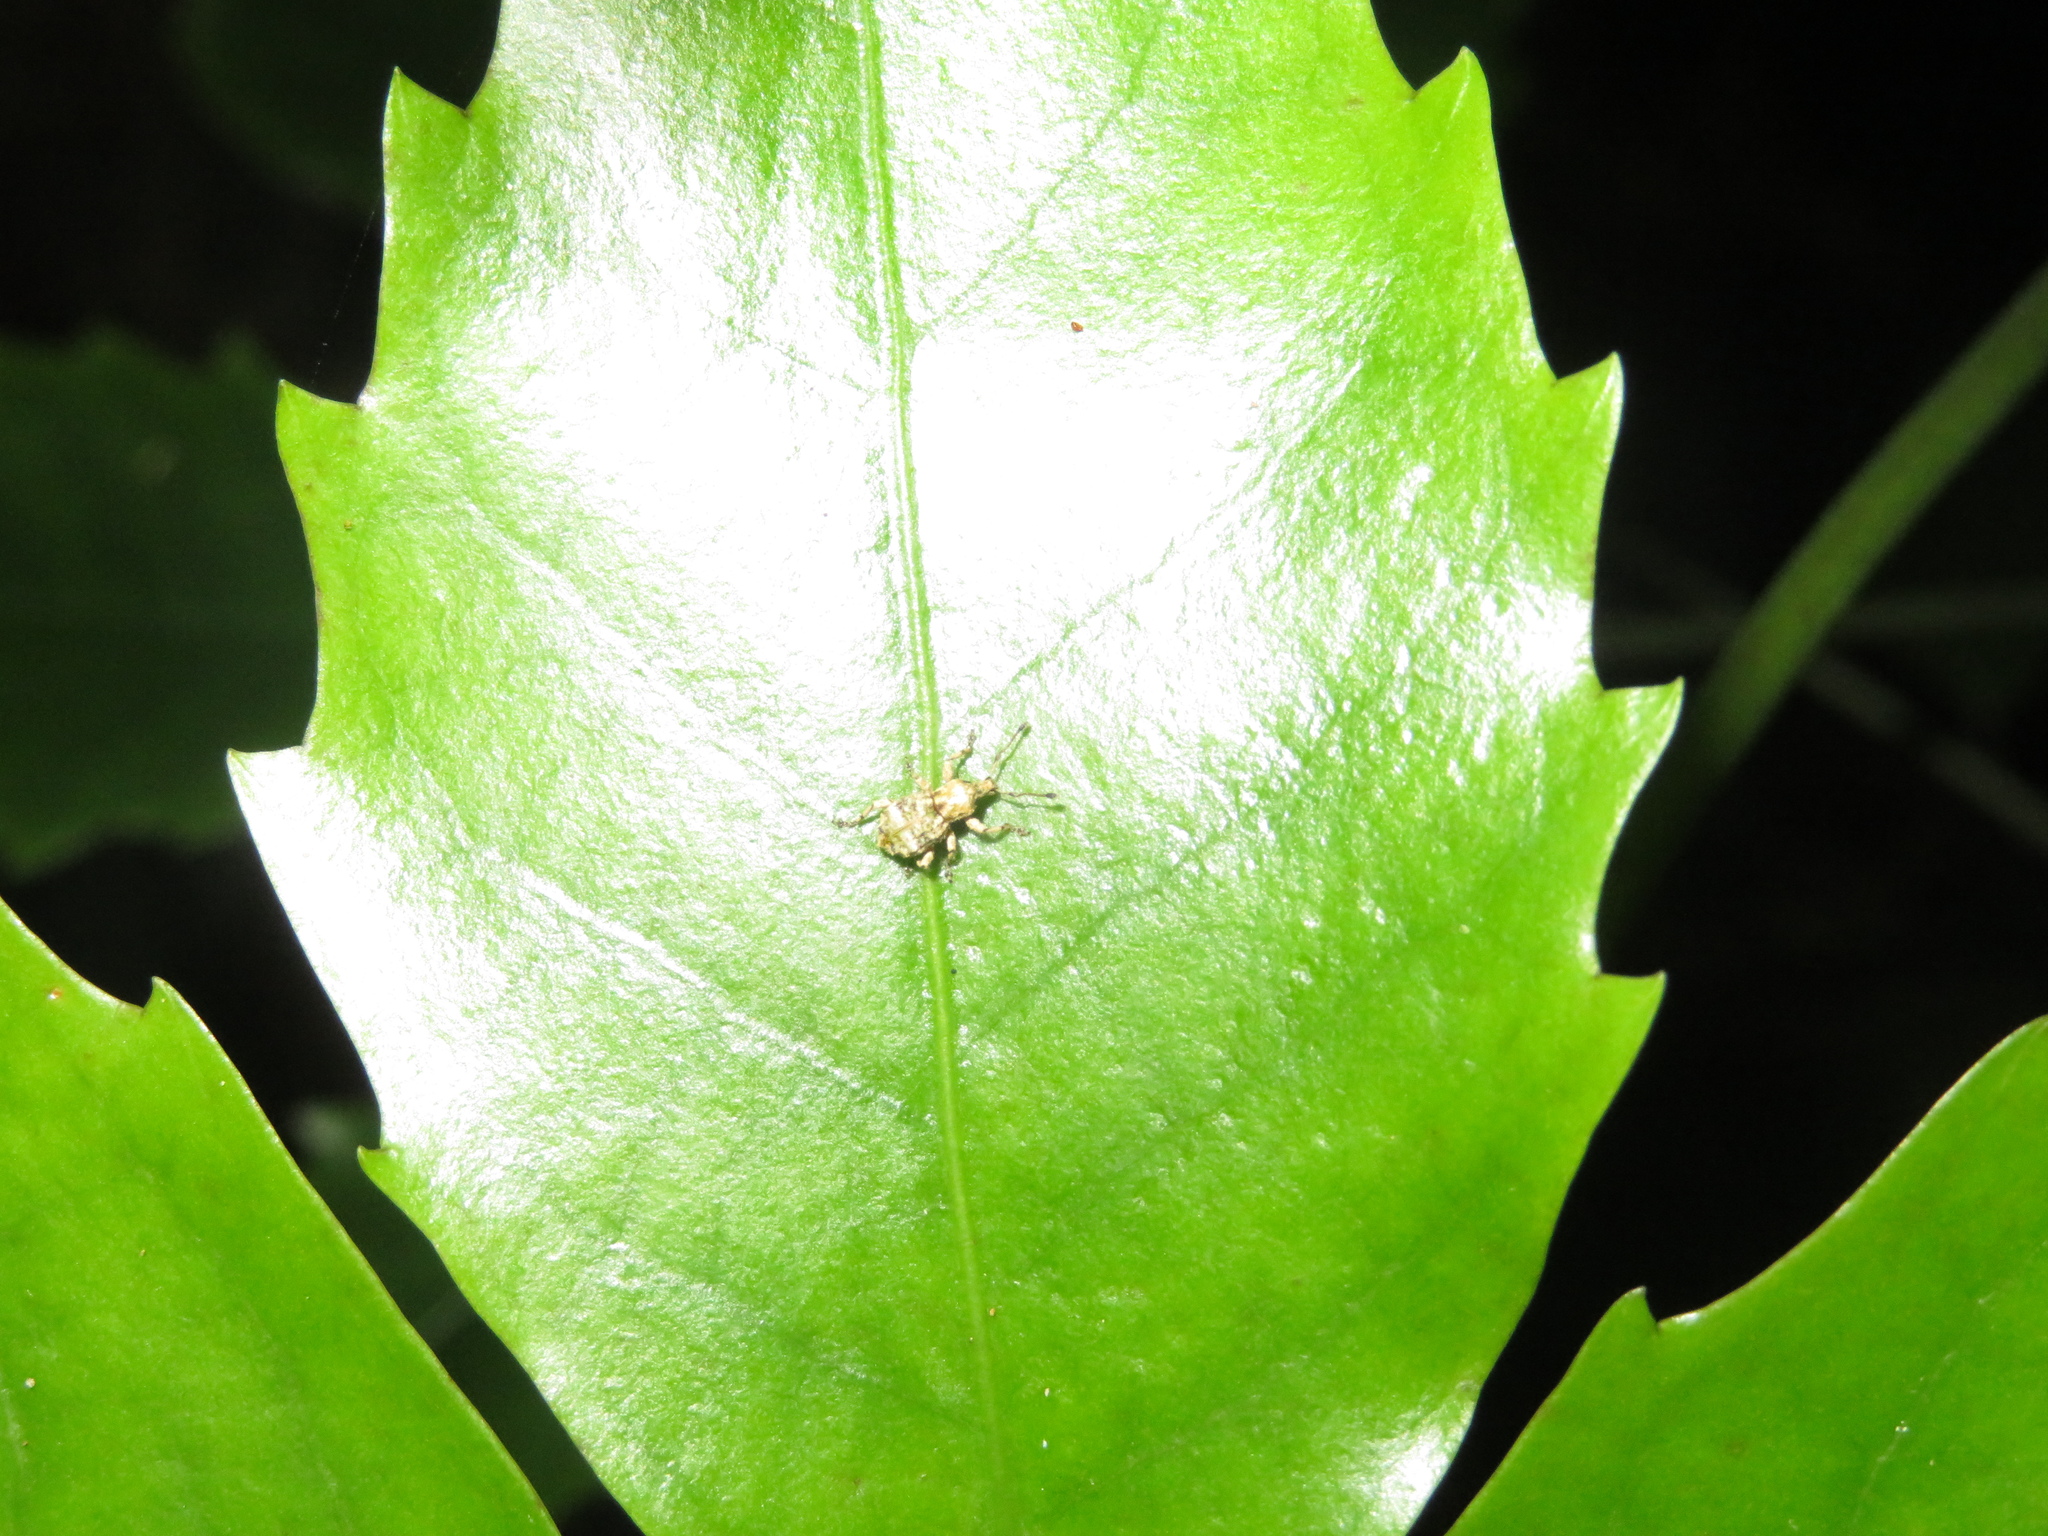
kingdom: Animalia
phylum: Arthropoda
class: Insecta
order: Coleoptera
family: Curculionidae
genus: Brachyolus
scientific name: Brachyolus punctatus
